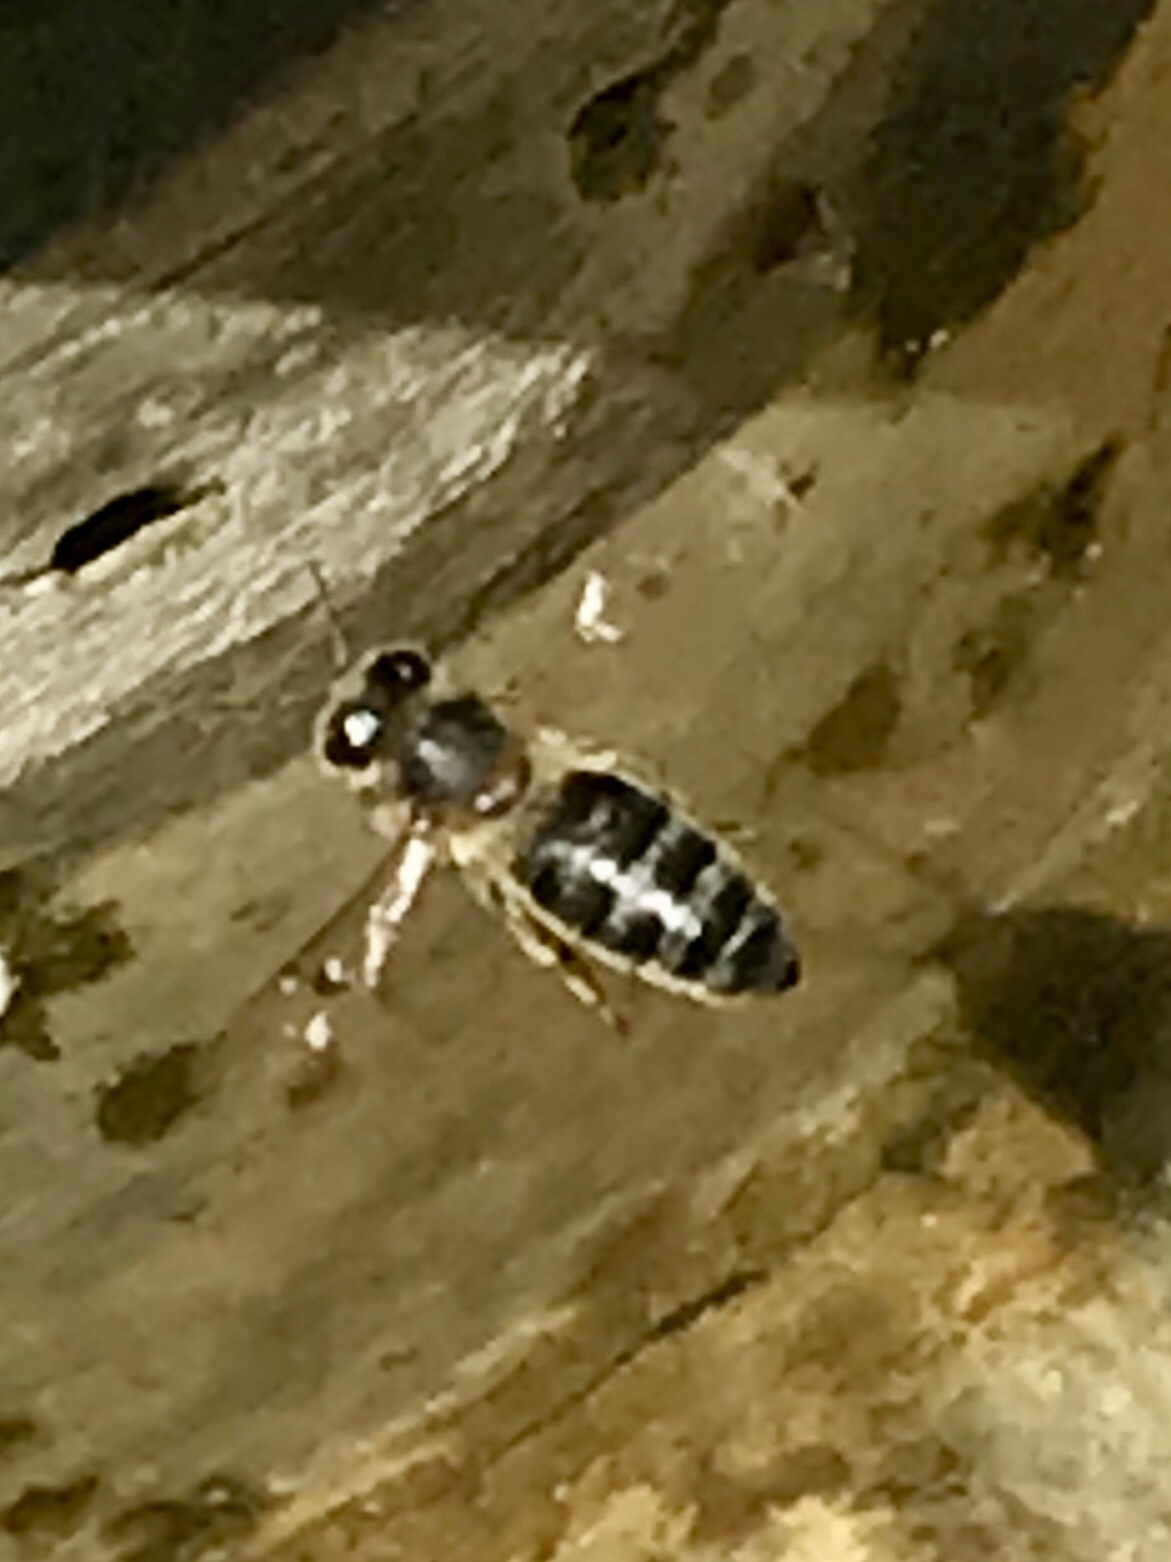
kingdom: Animalia
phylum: Arthropoda
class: Insecta
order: Hymenoptera
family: Apidae
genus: Apis
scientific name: Apis mellifera
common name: Honey bee
